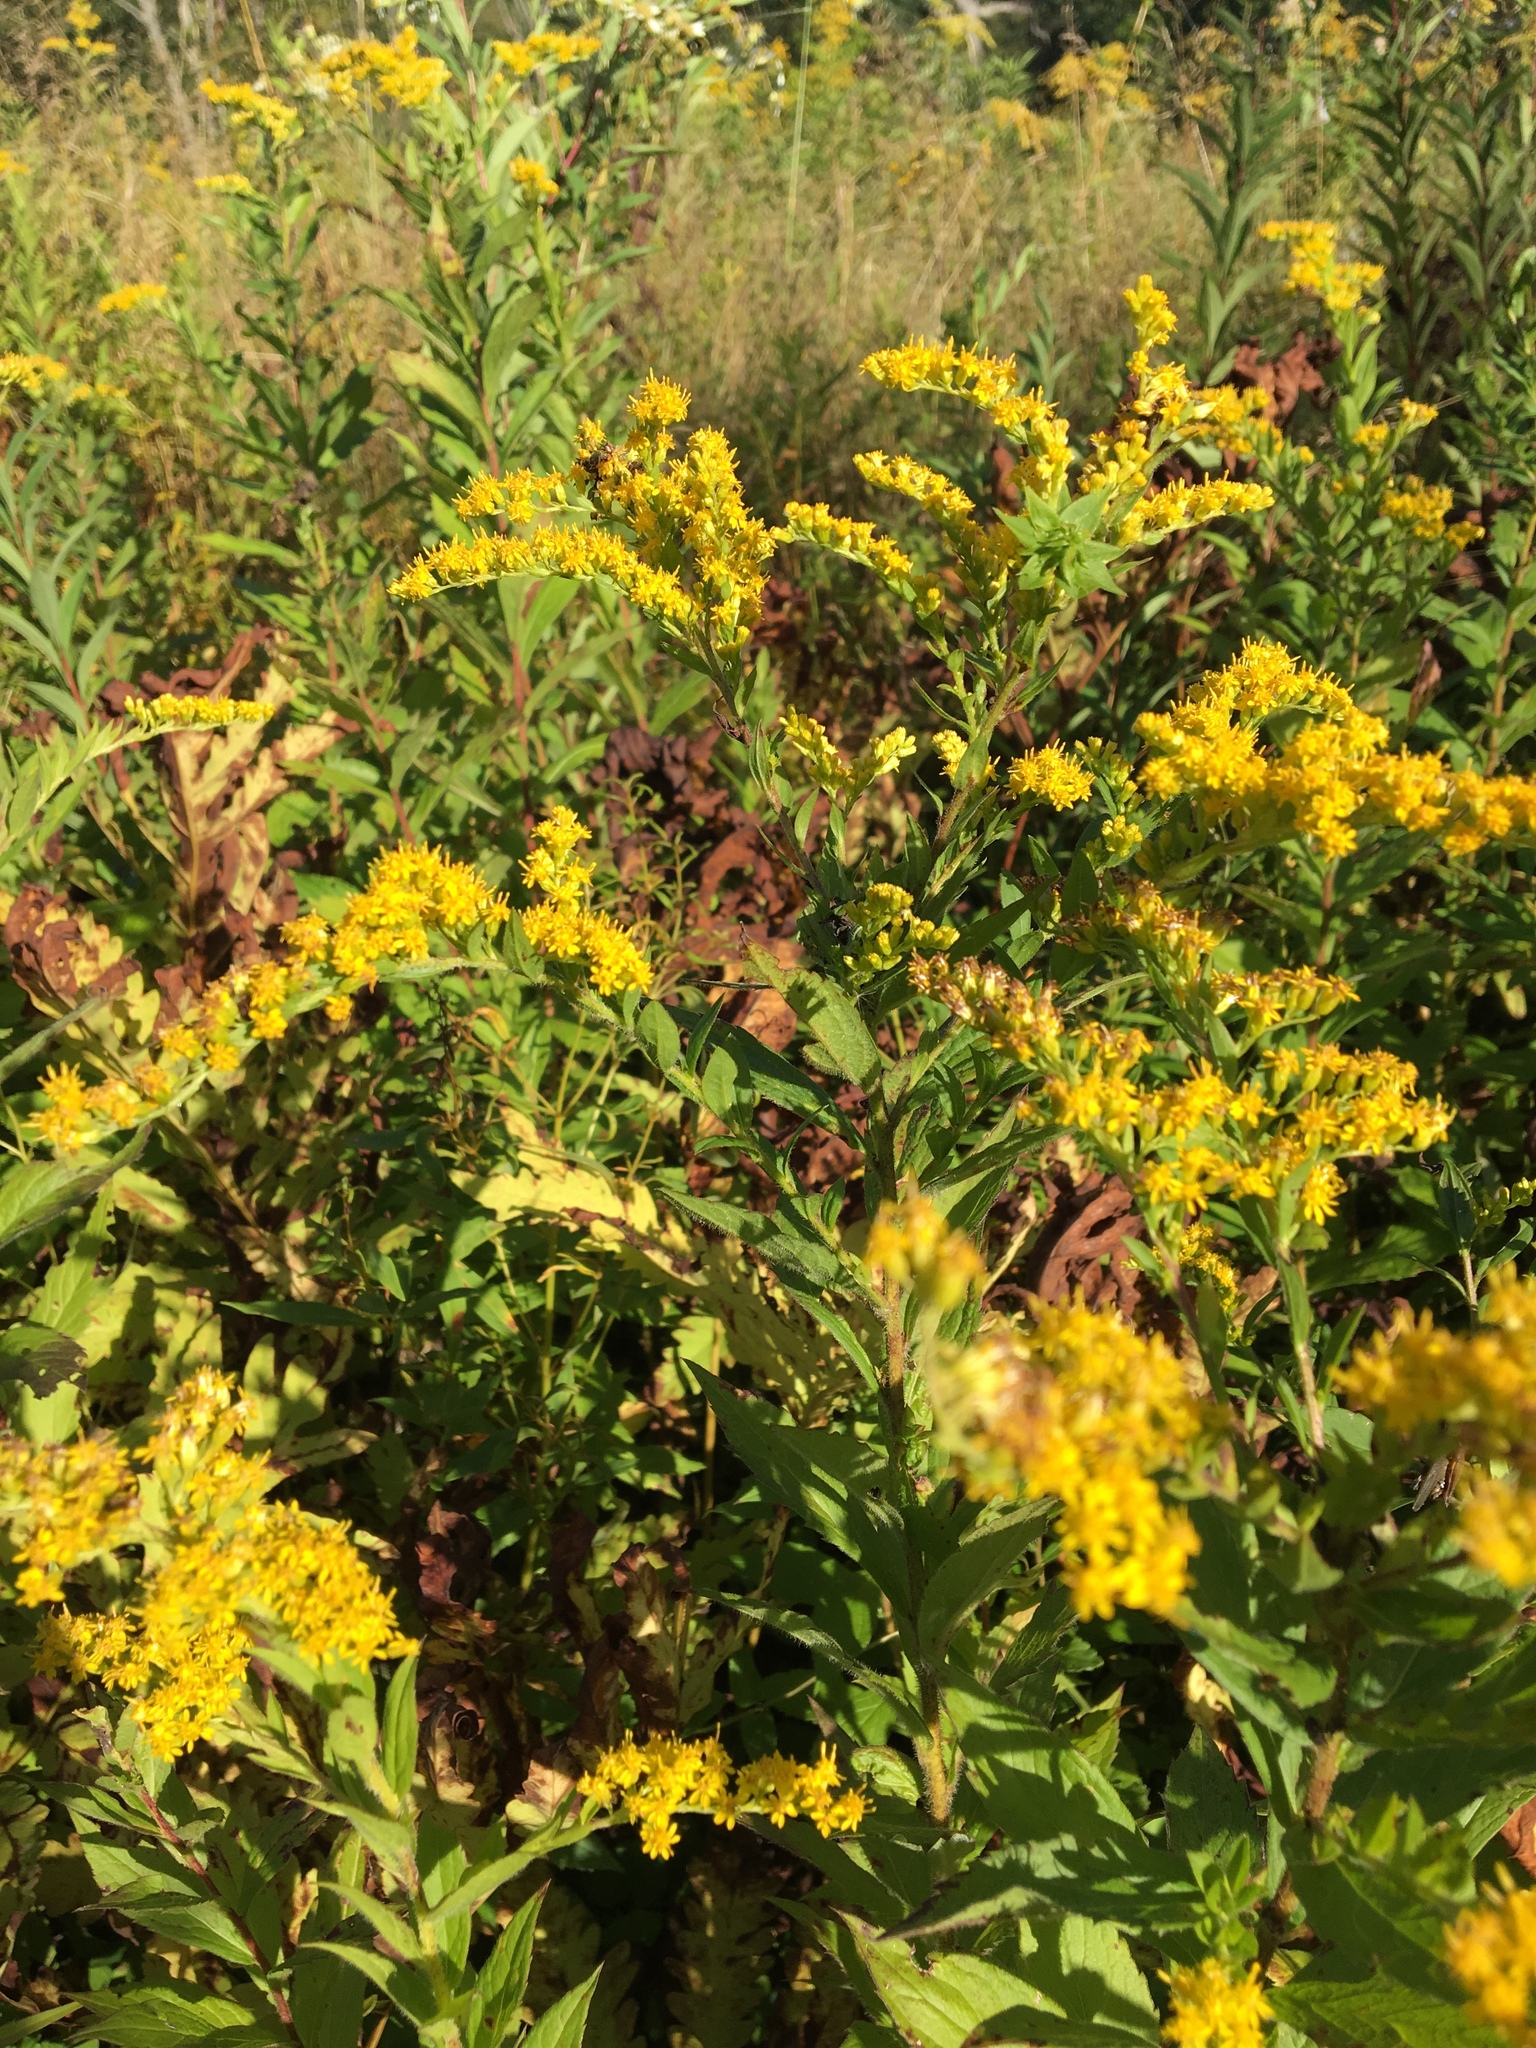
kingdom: Plantae
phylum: Tracheophyta
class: Magnoliopsida
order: Asterales
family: Asteraceae
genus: Solidago
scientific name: Solidago rugosa
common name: Rough-stemmed goldenrod
